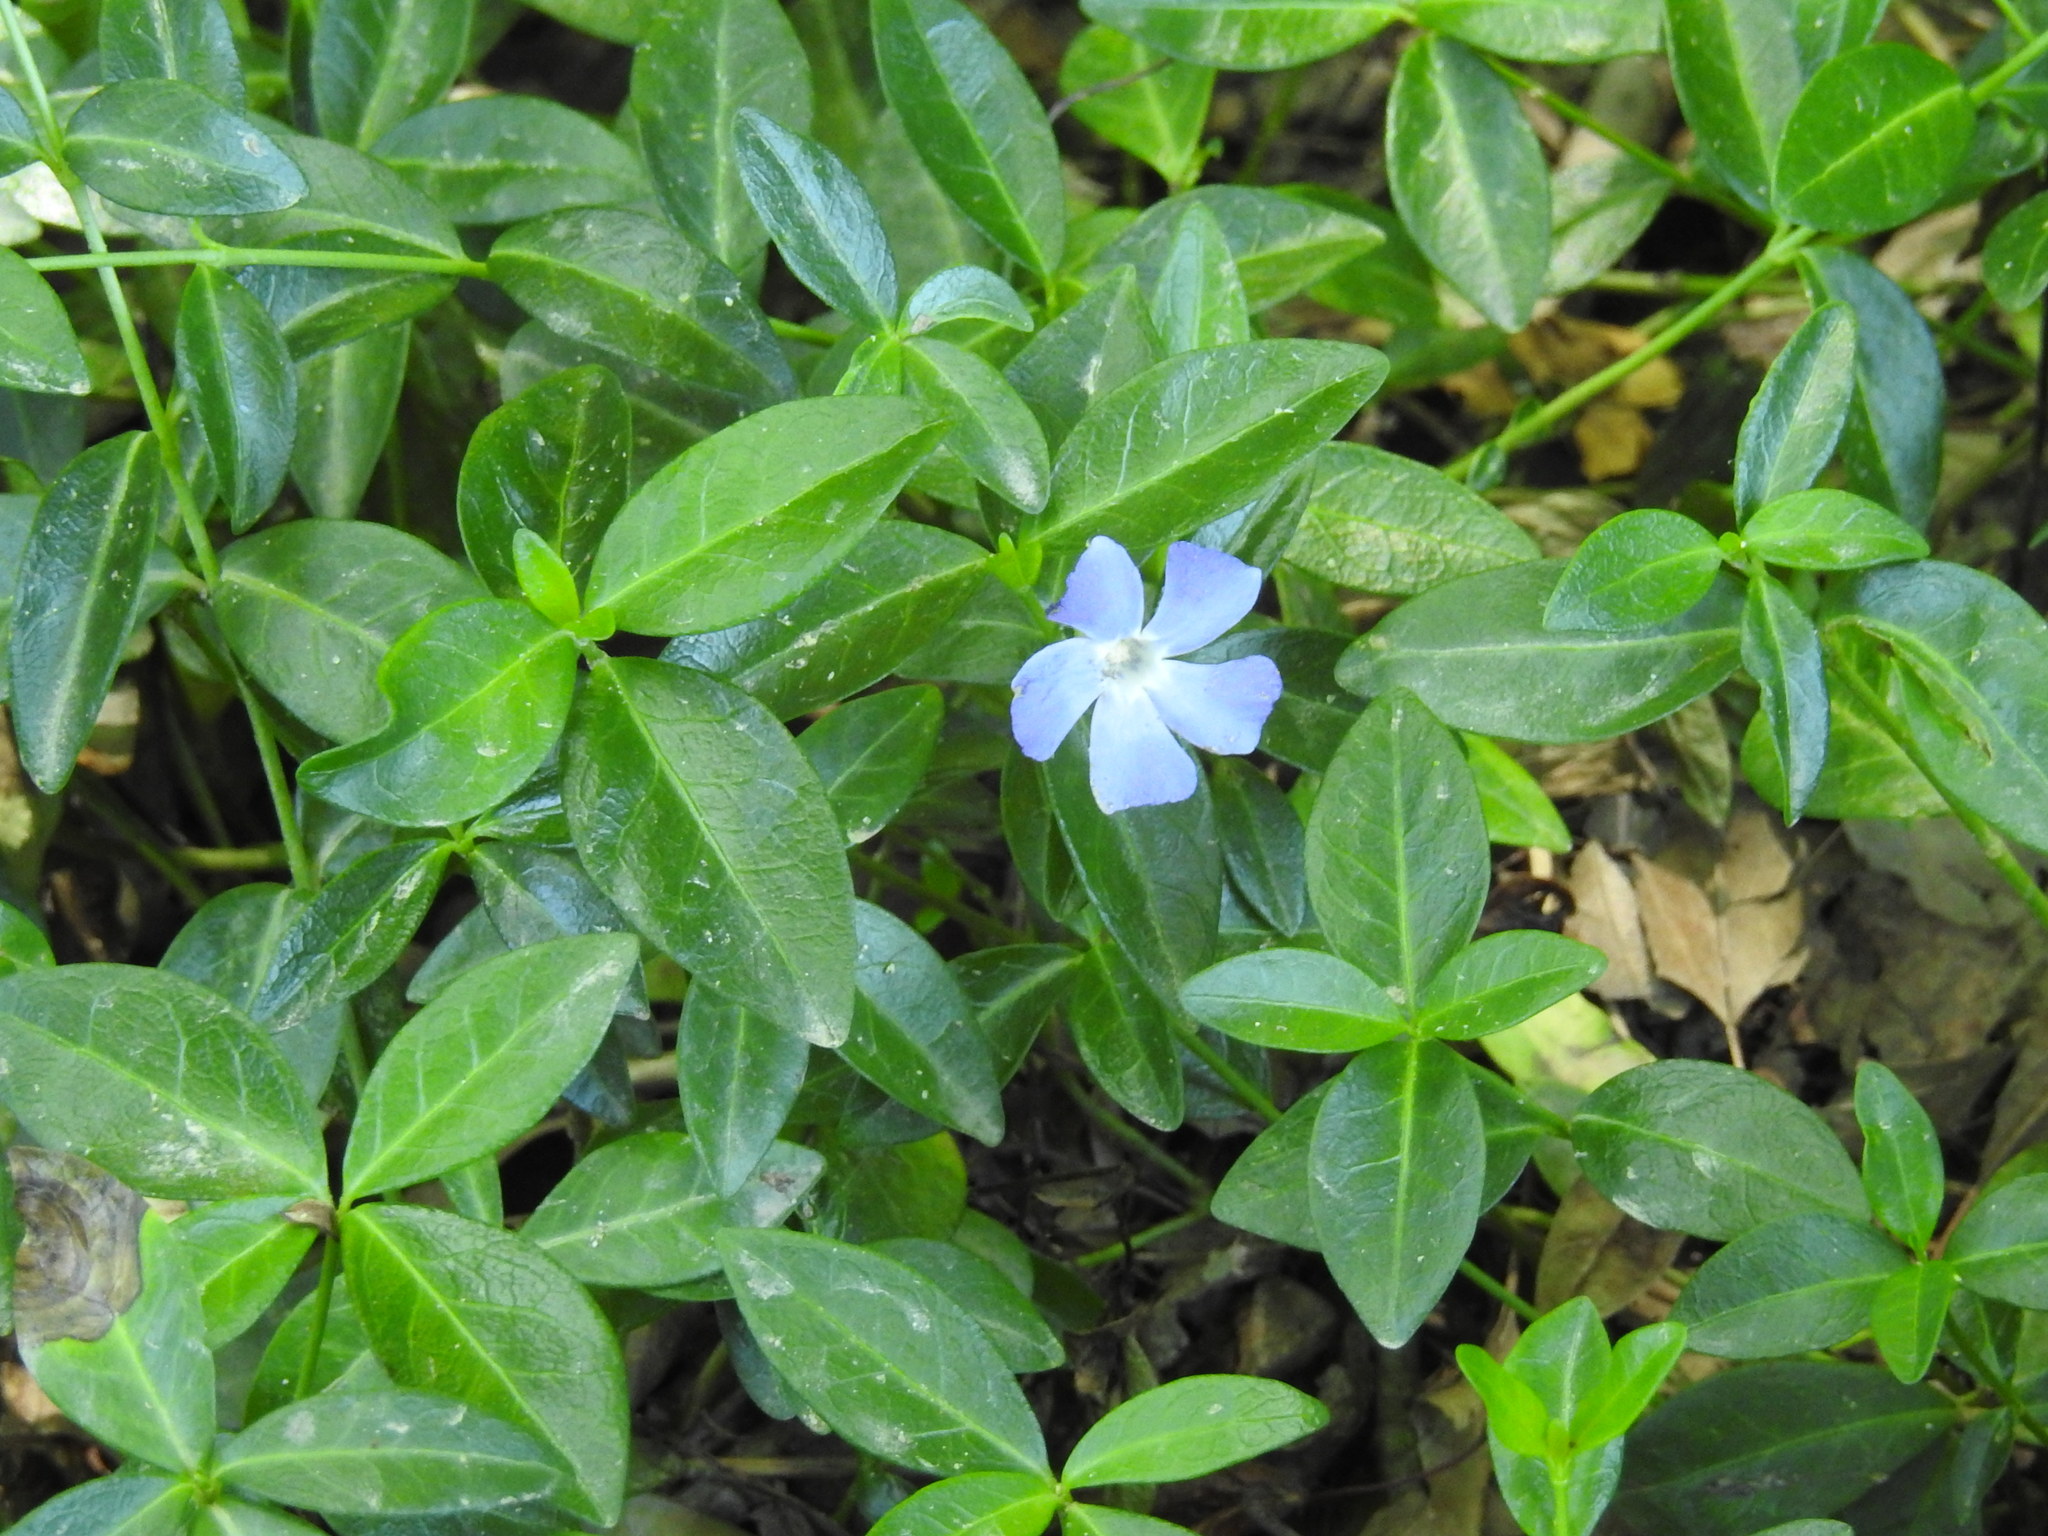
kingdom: Plantae
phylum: Tracheophyta
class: Magnoliopsida
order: Gentianales
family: Apocynaceae
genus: Vinca
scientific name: Vinca minor
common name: Lesser periwinkle
